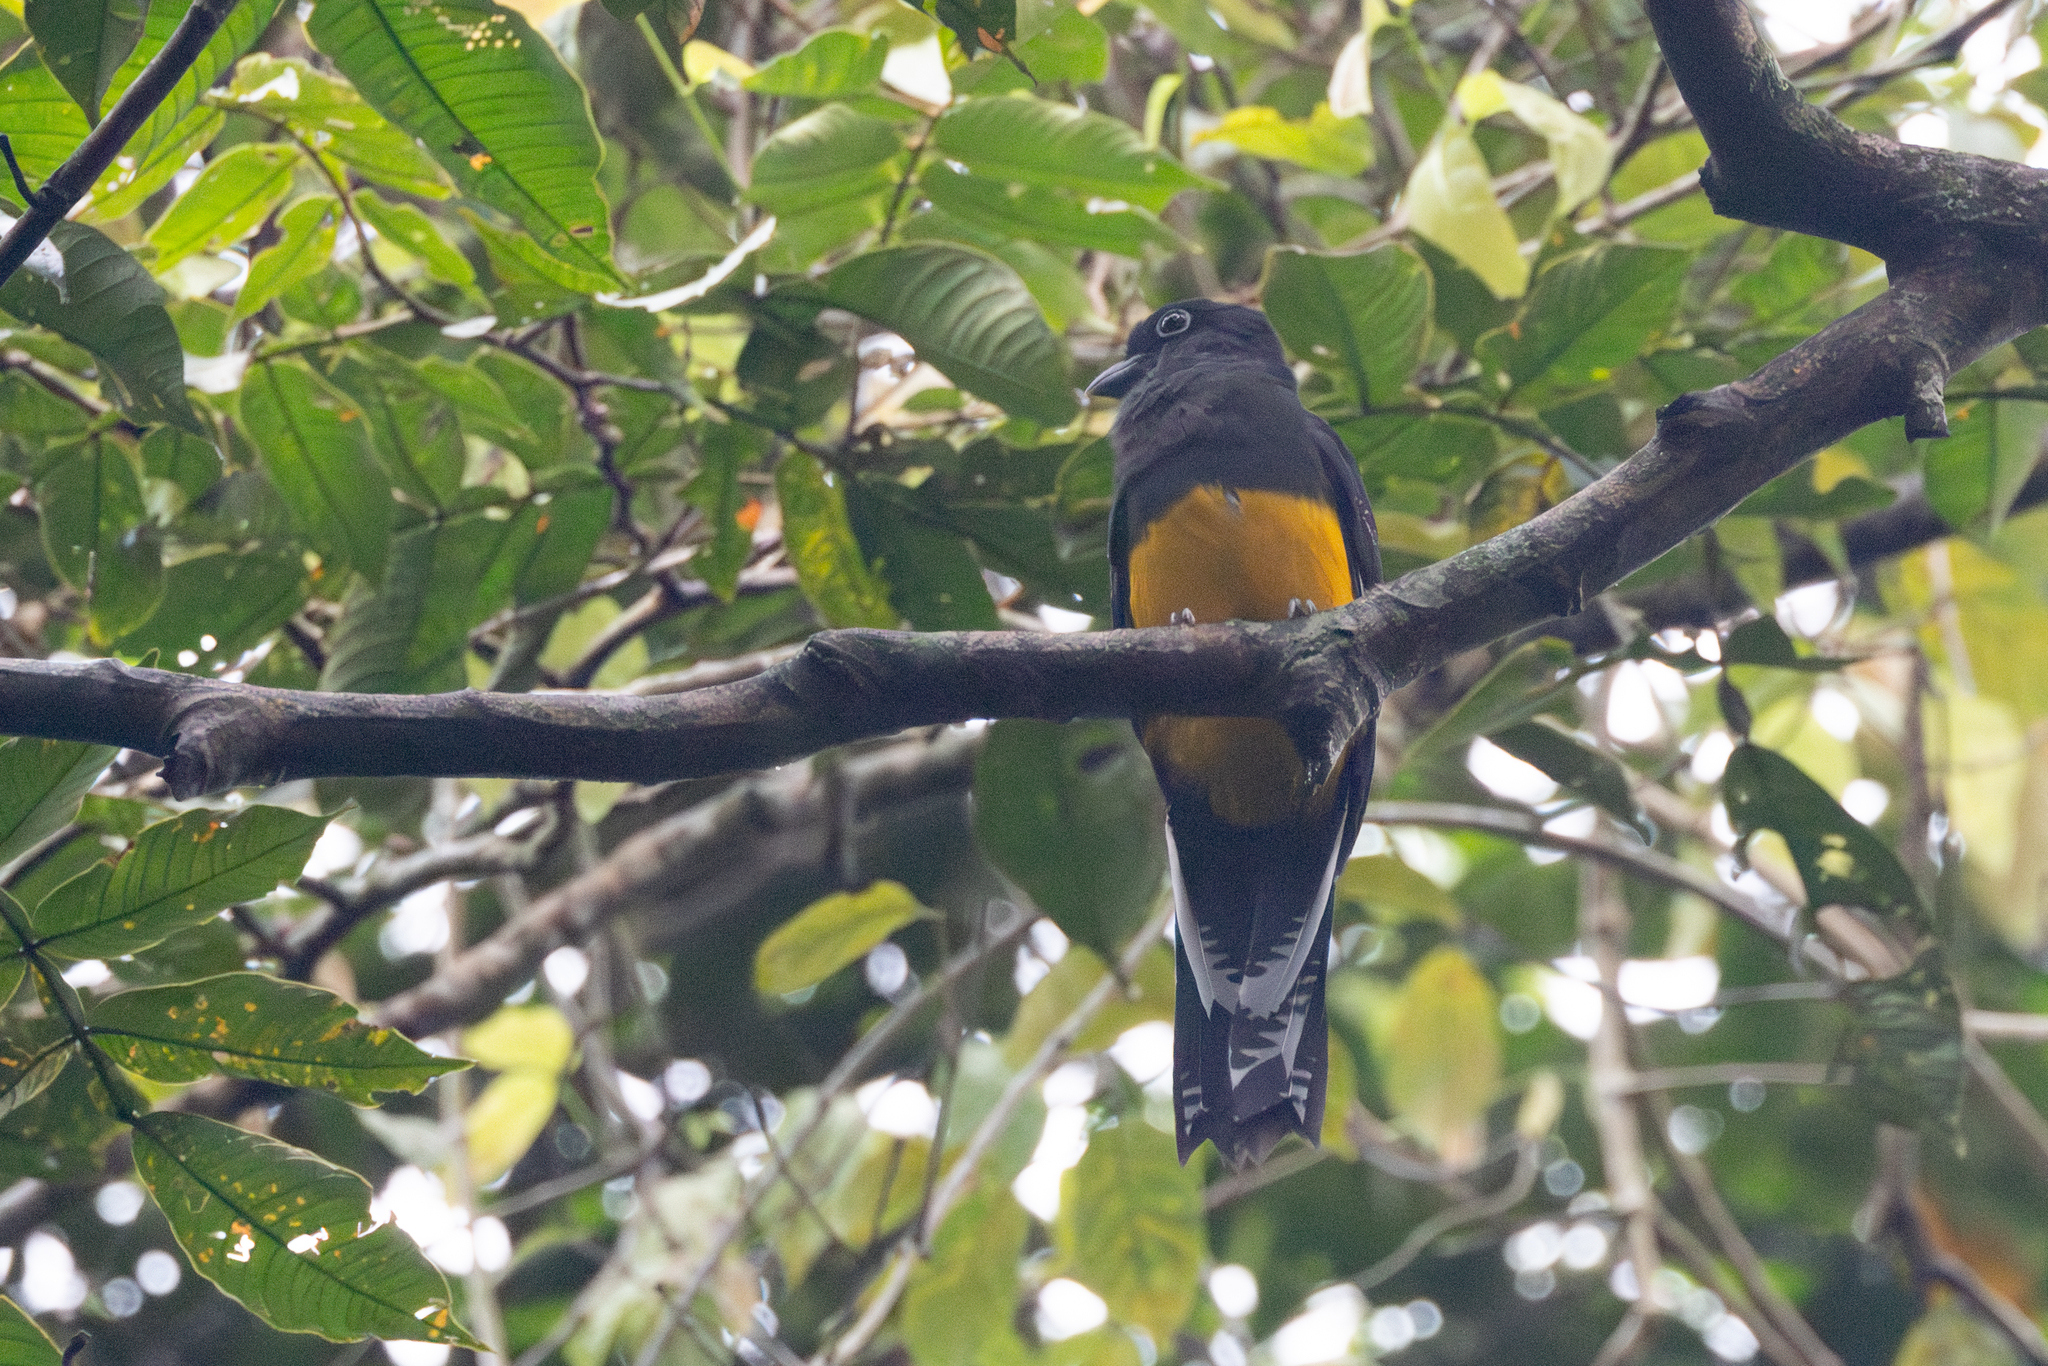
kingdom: Animalia
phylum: Chordata
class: Aves
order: Trogoniformes
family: Trogonidae
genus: Trogon
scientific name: Trogon viridis
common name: Green-backed trogon
